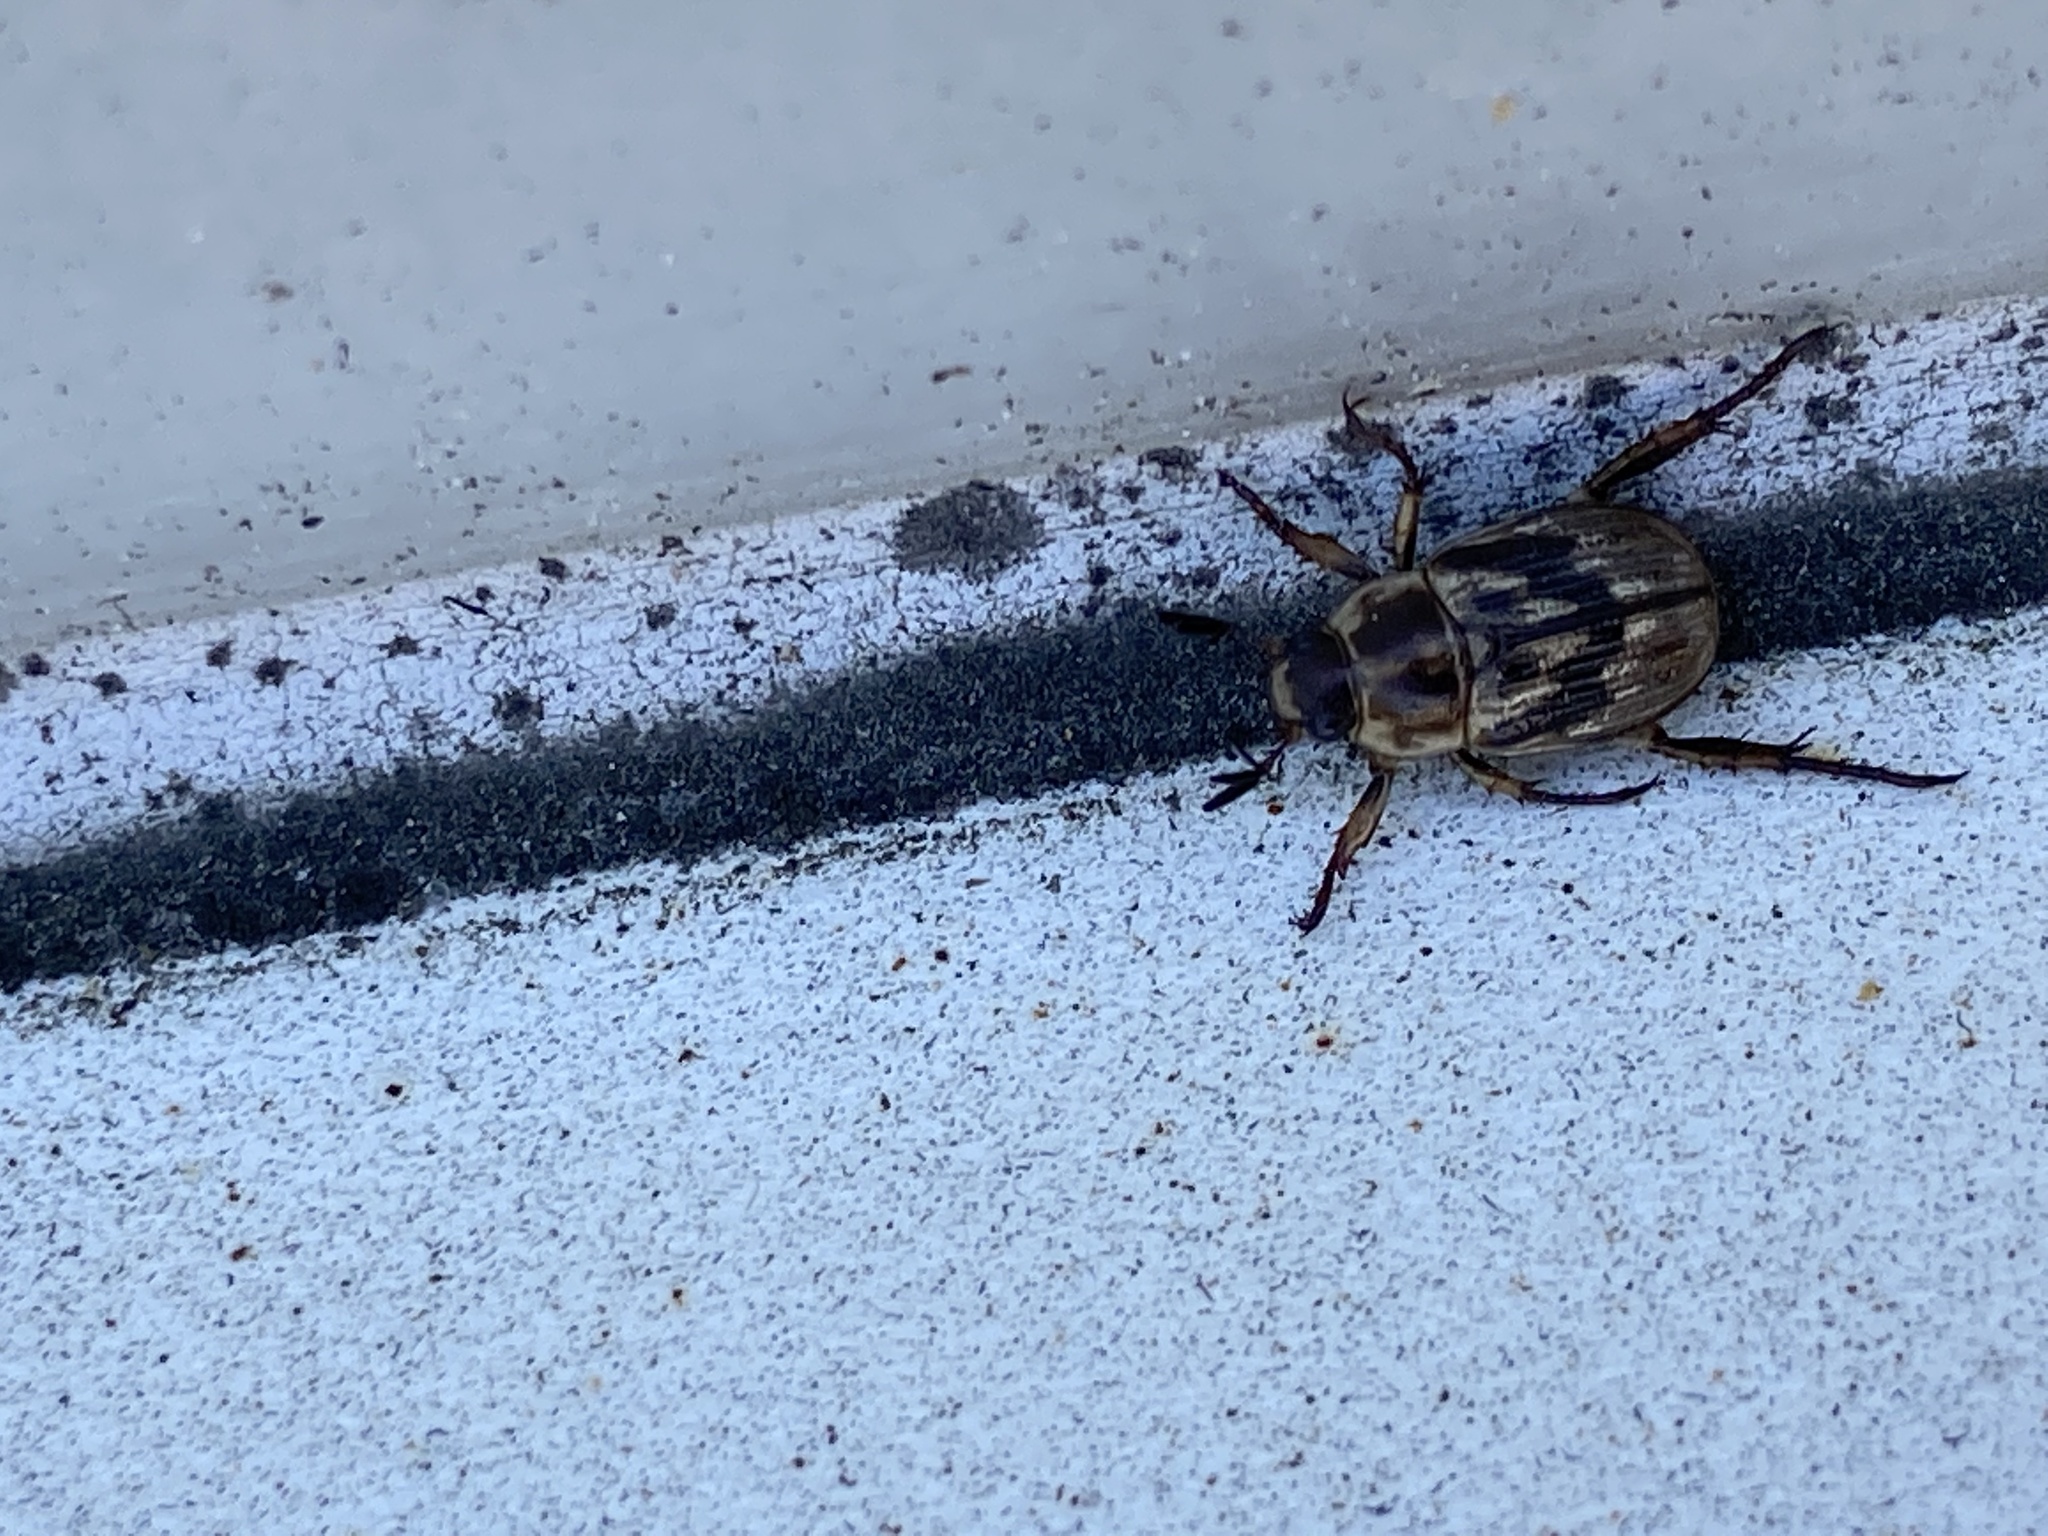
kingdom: Animalia
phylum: Arthropoda
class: Insecta
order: Coleoptera
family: Scarabaeidae
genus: Exomala
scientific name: Exomala orientalis
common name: Oriental beetle
